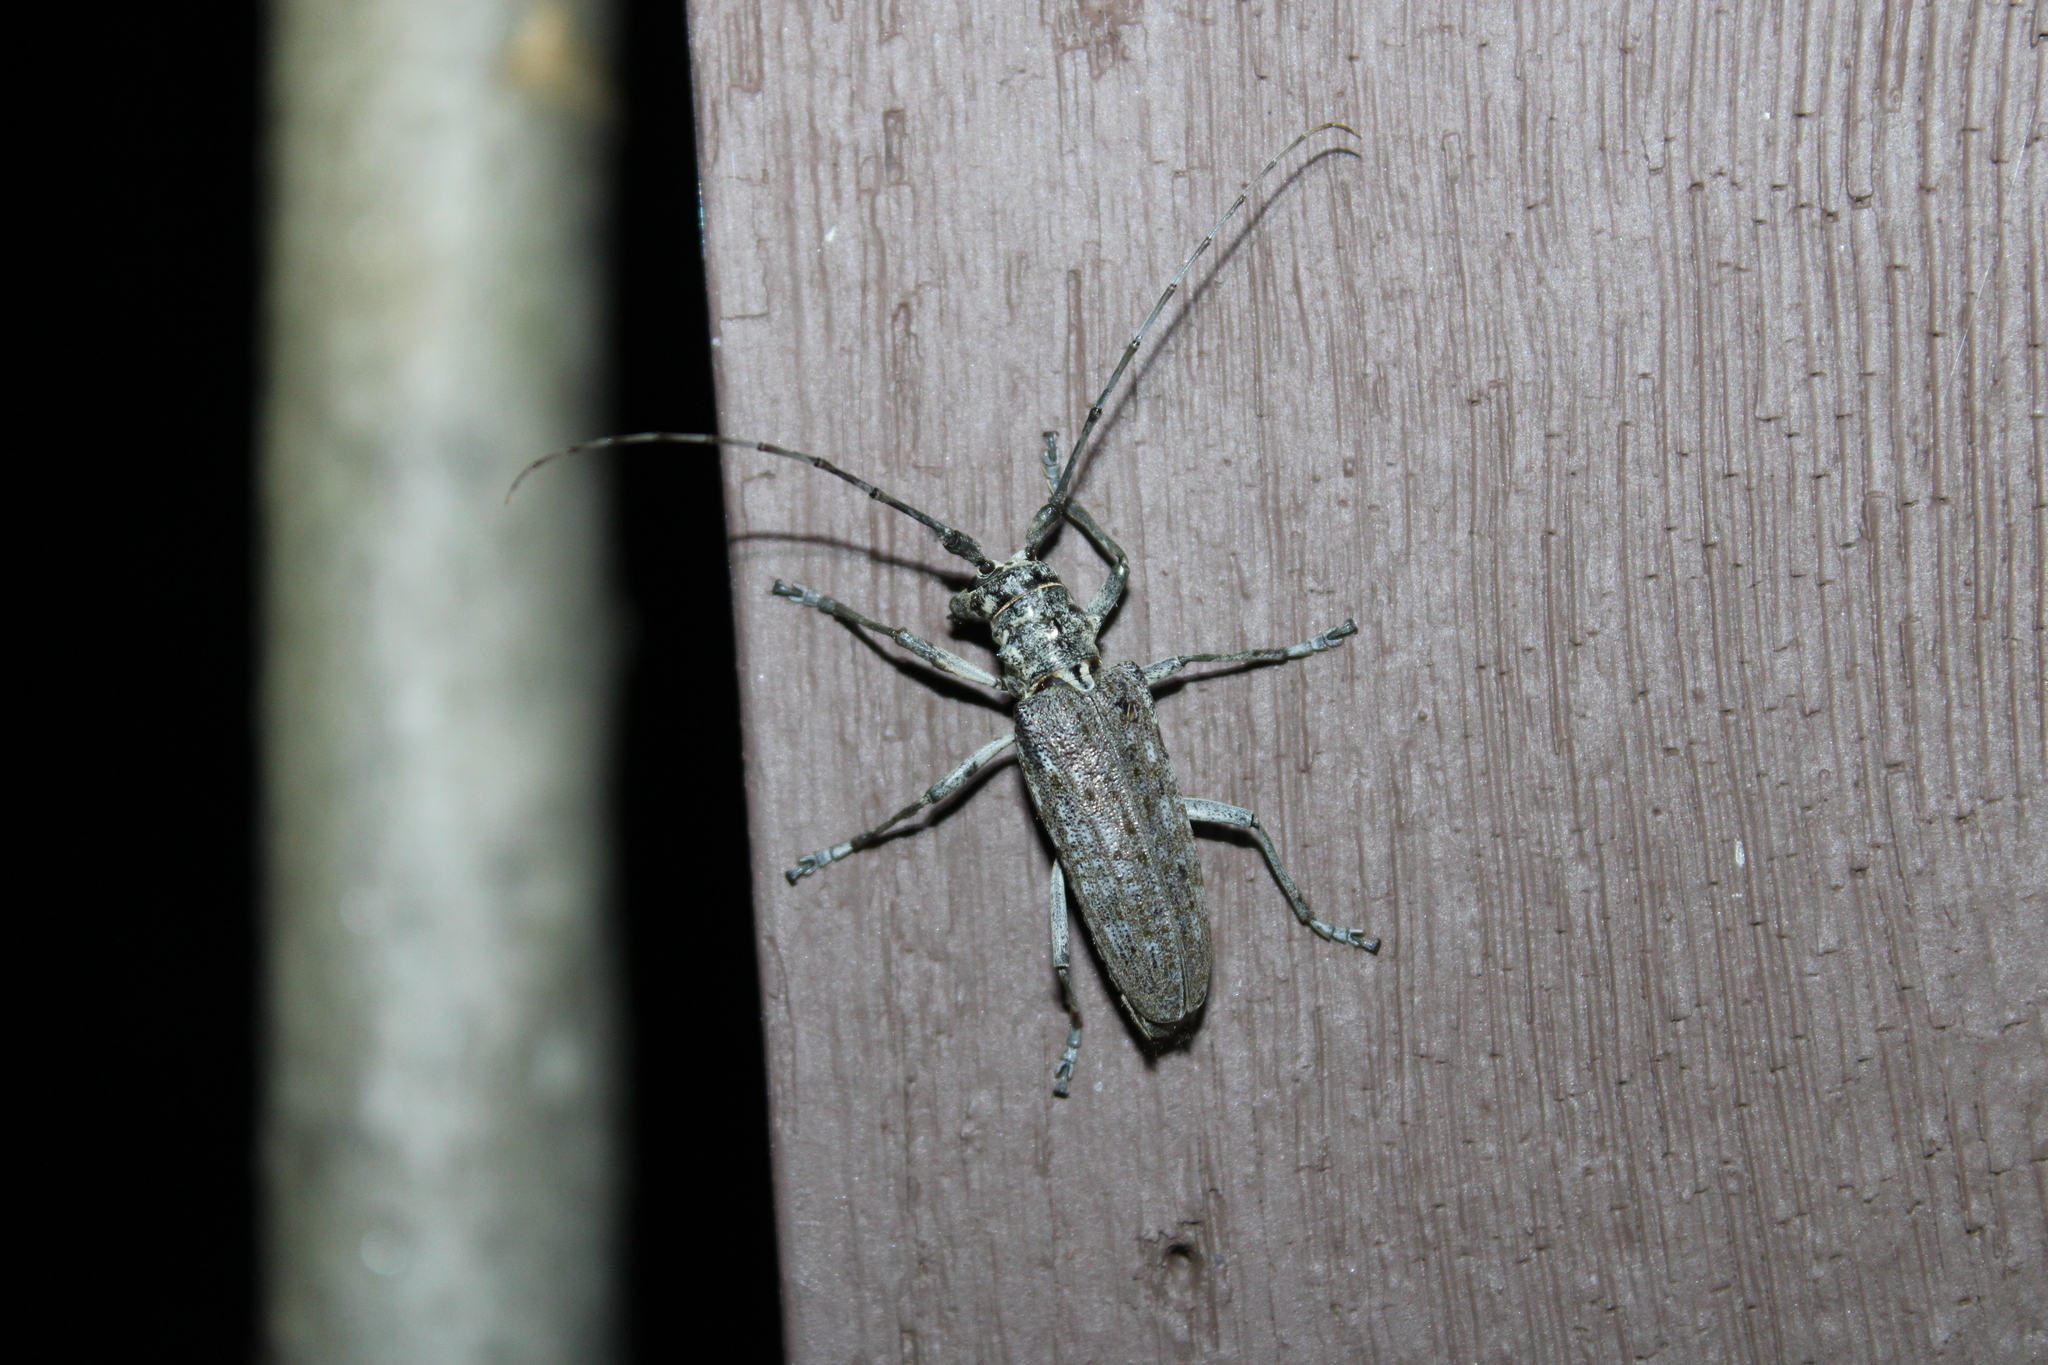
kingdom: Animalia
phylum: Arthropoda
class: Insecta
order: Coleoptera
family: Cerambycidae
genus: Monochamus
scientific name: Monochamus notatus
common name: Northeastern pine sawyer beetle
